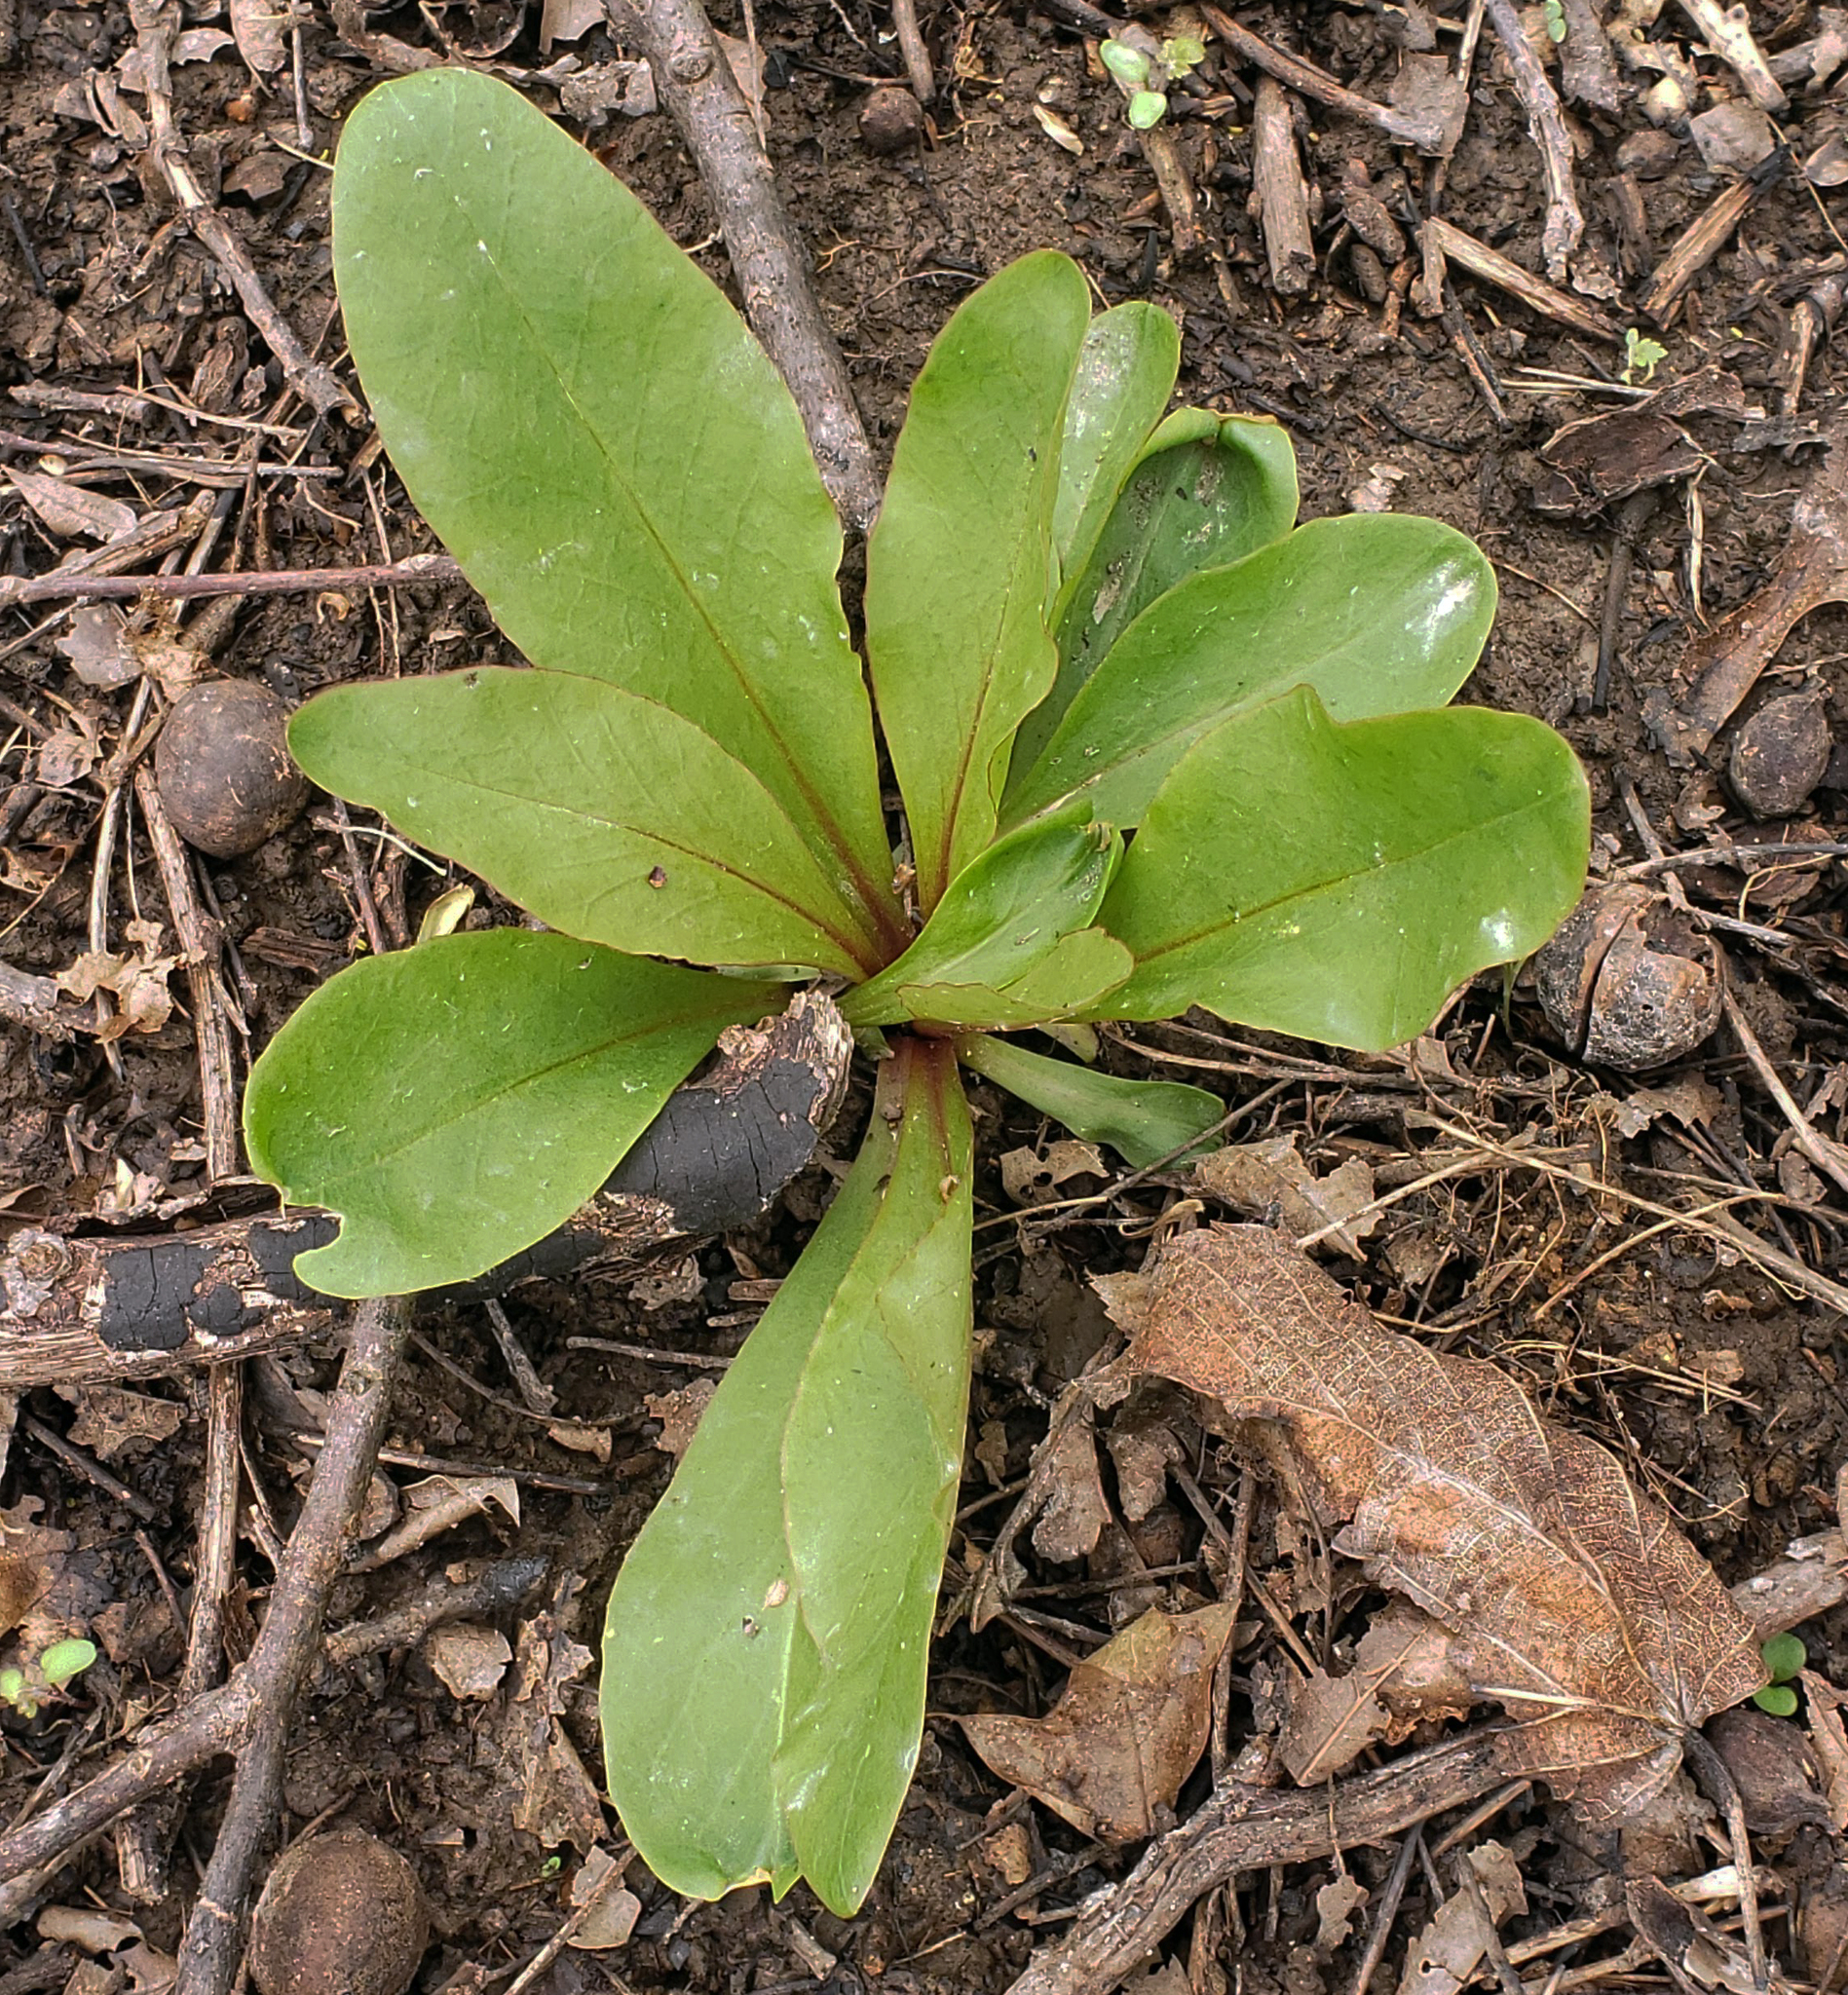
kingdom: Plantae
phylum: Tracheophyta
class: Magnoliopsida
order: Ericales
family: Primulaceae
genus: Dodecatheon
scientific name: Dodecatheon meadia
